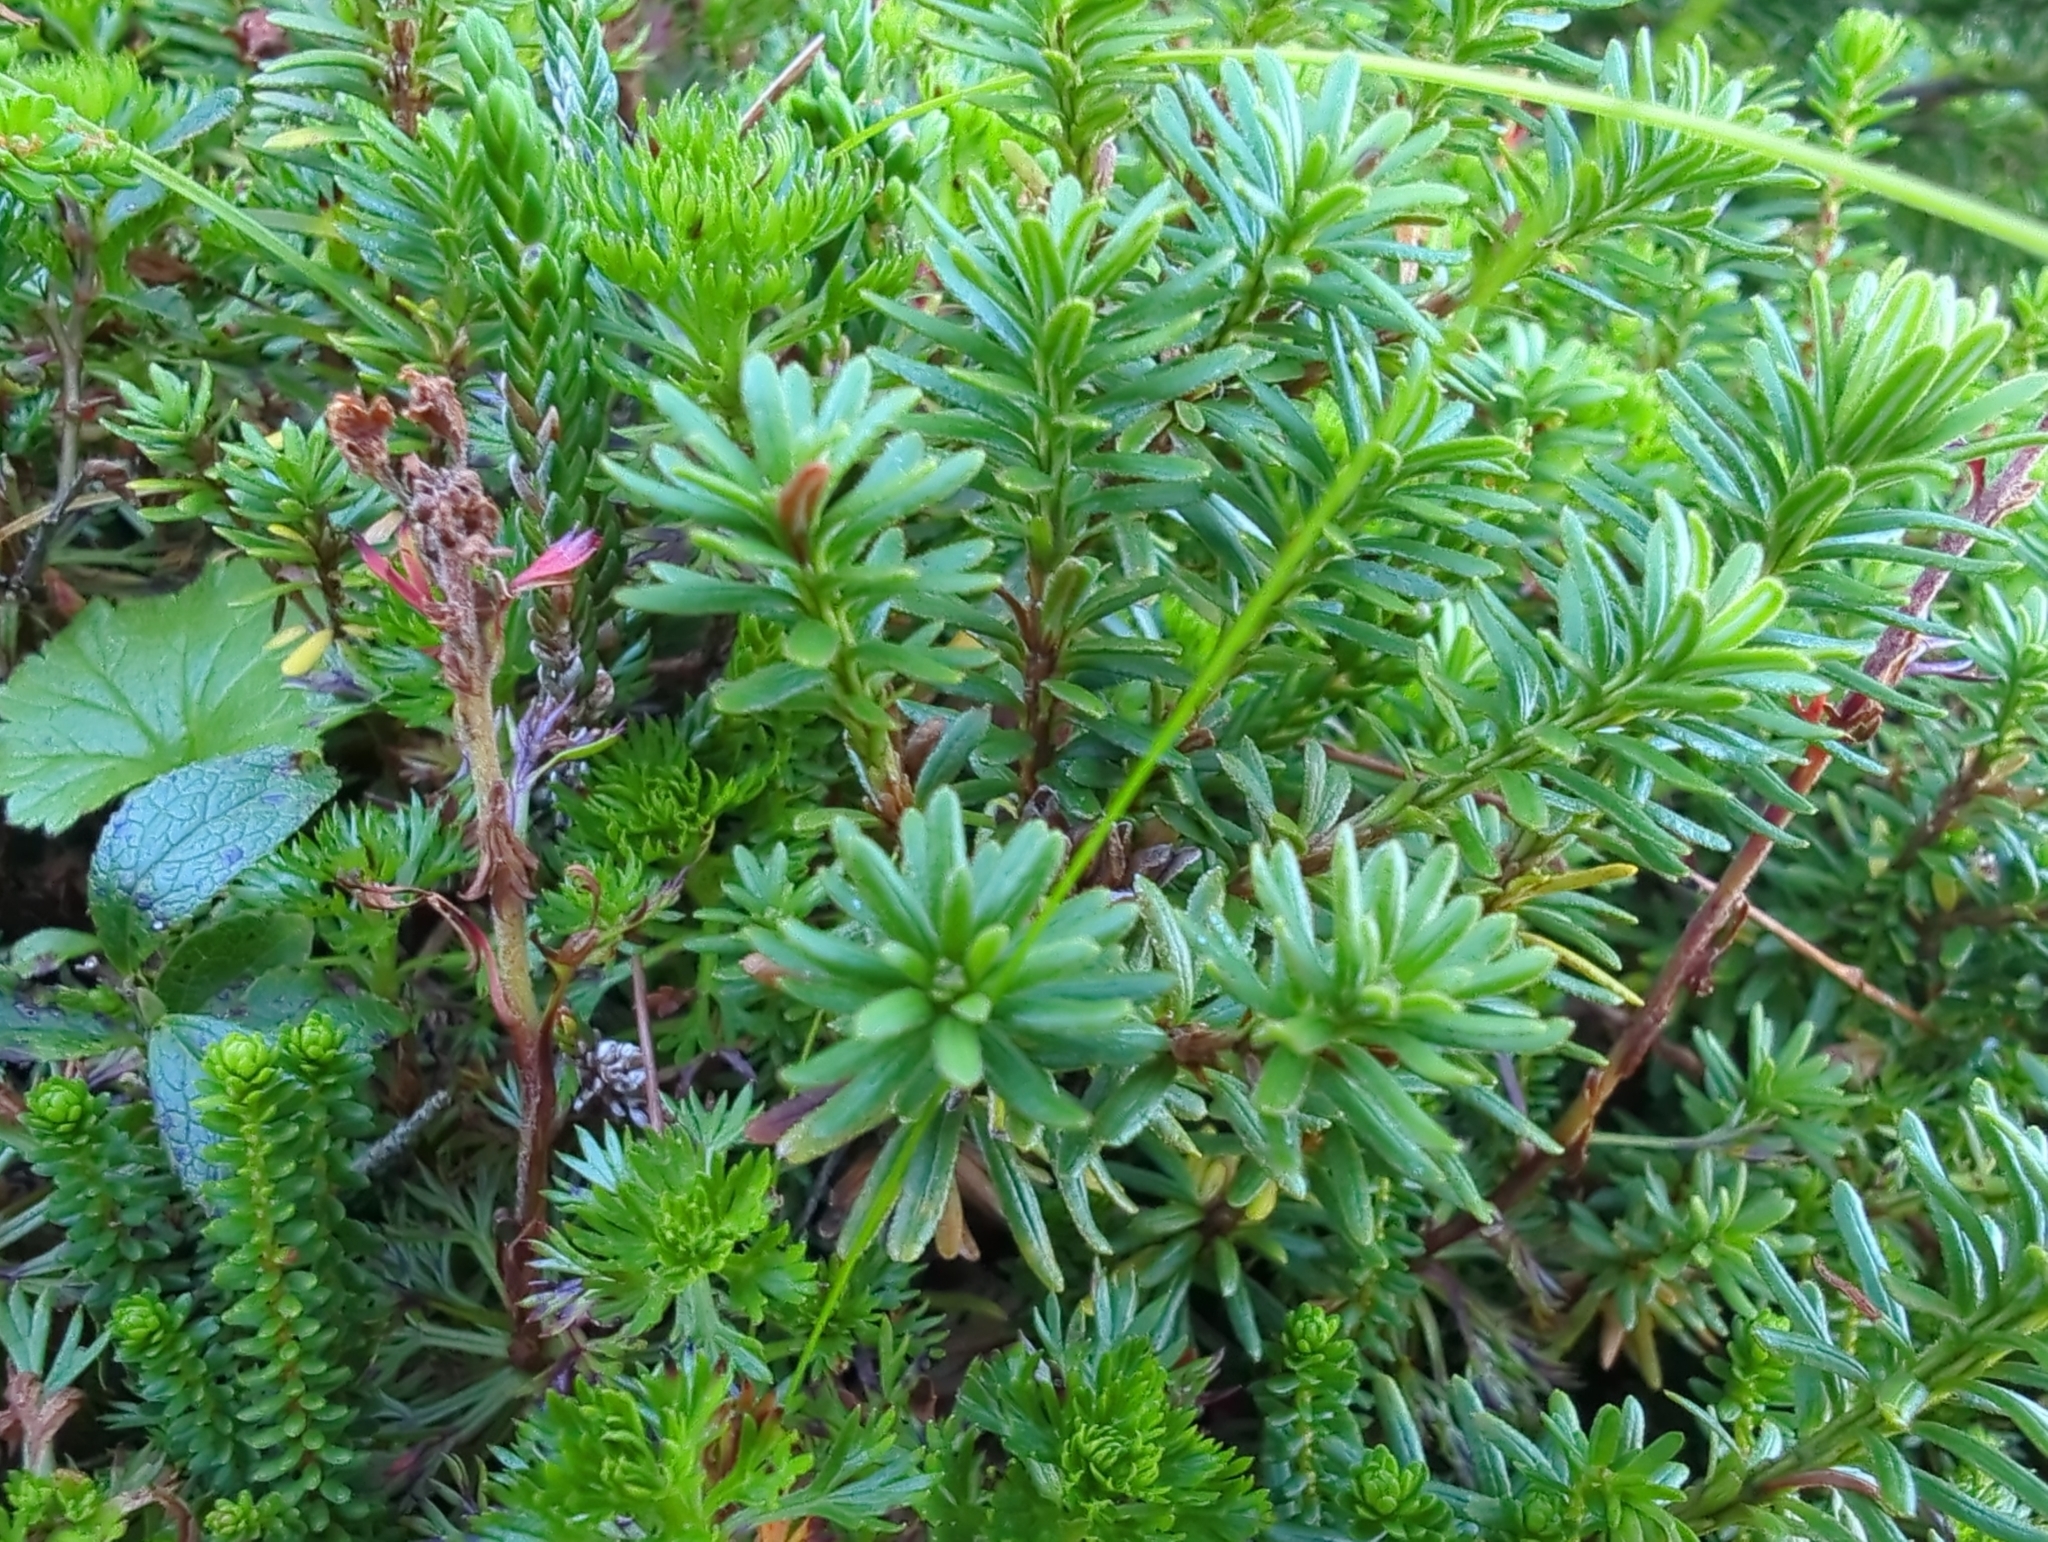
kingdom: Plantae
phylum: Tracheophyta
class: Magnoliopsida
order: Ericales
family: Ericaceae
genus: Phyllodoce
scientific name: Phyllodoce glanduliflora
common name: Cream mountain heather
